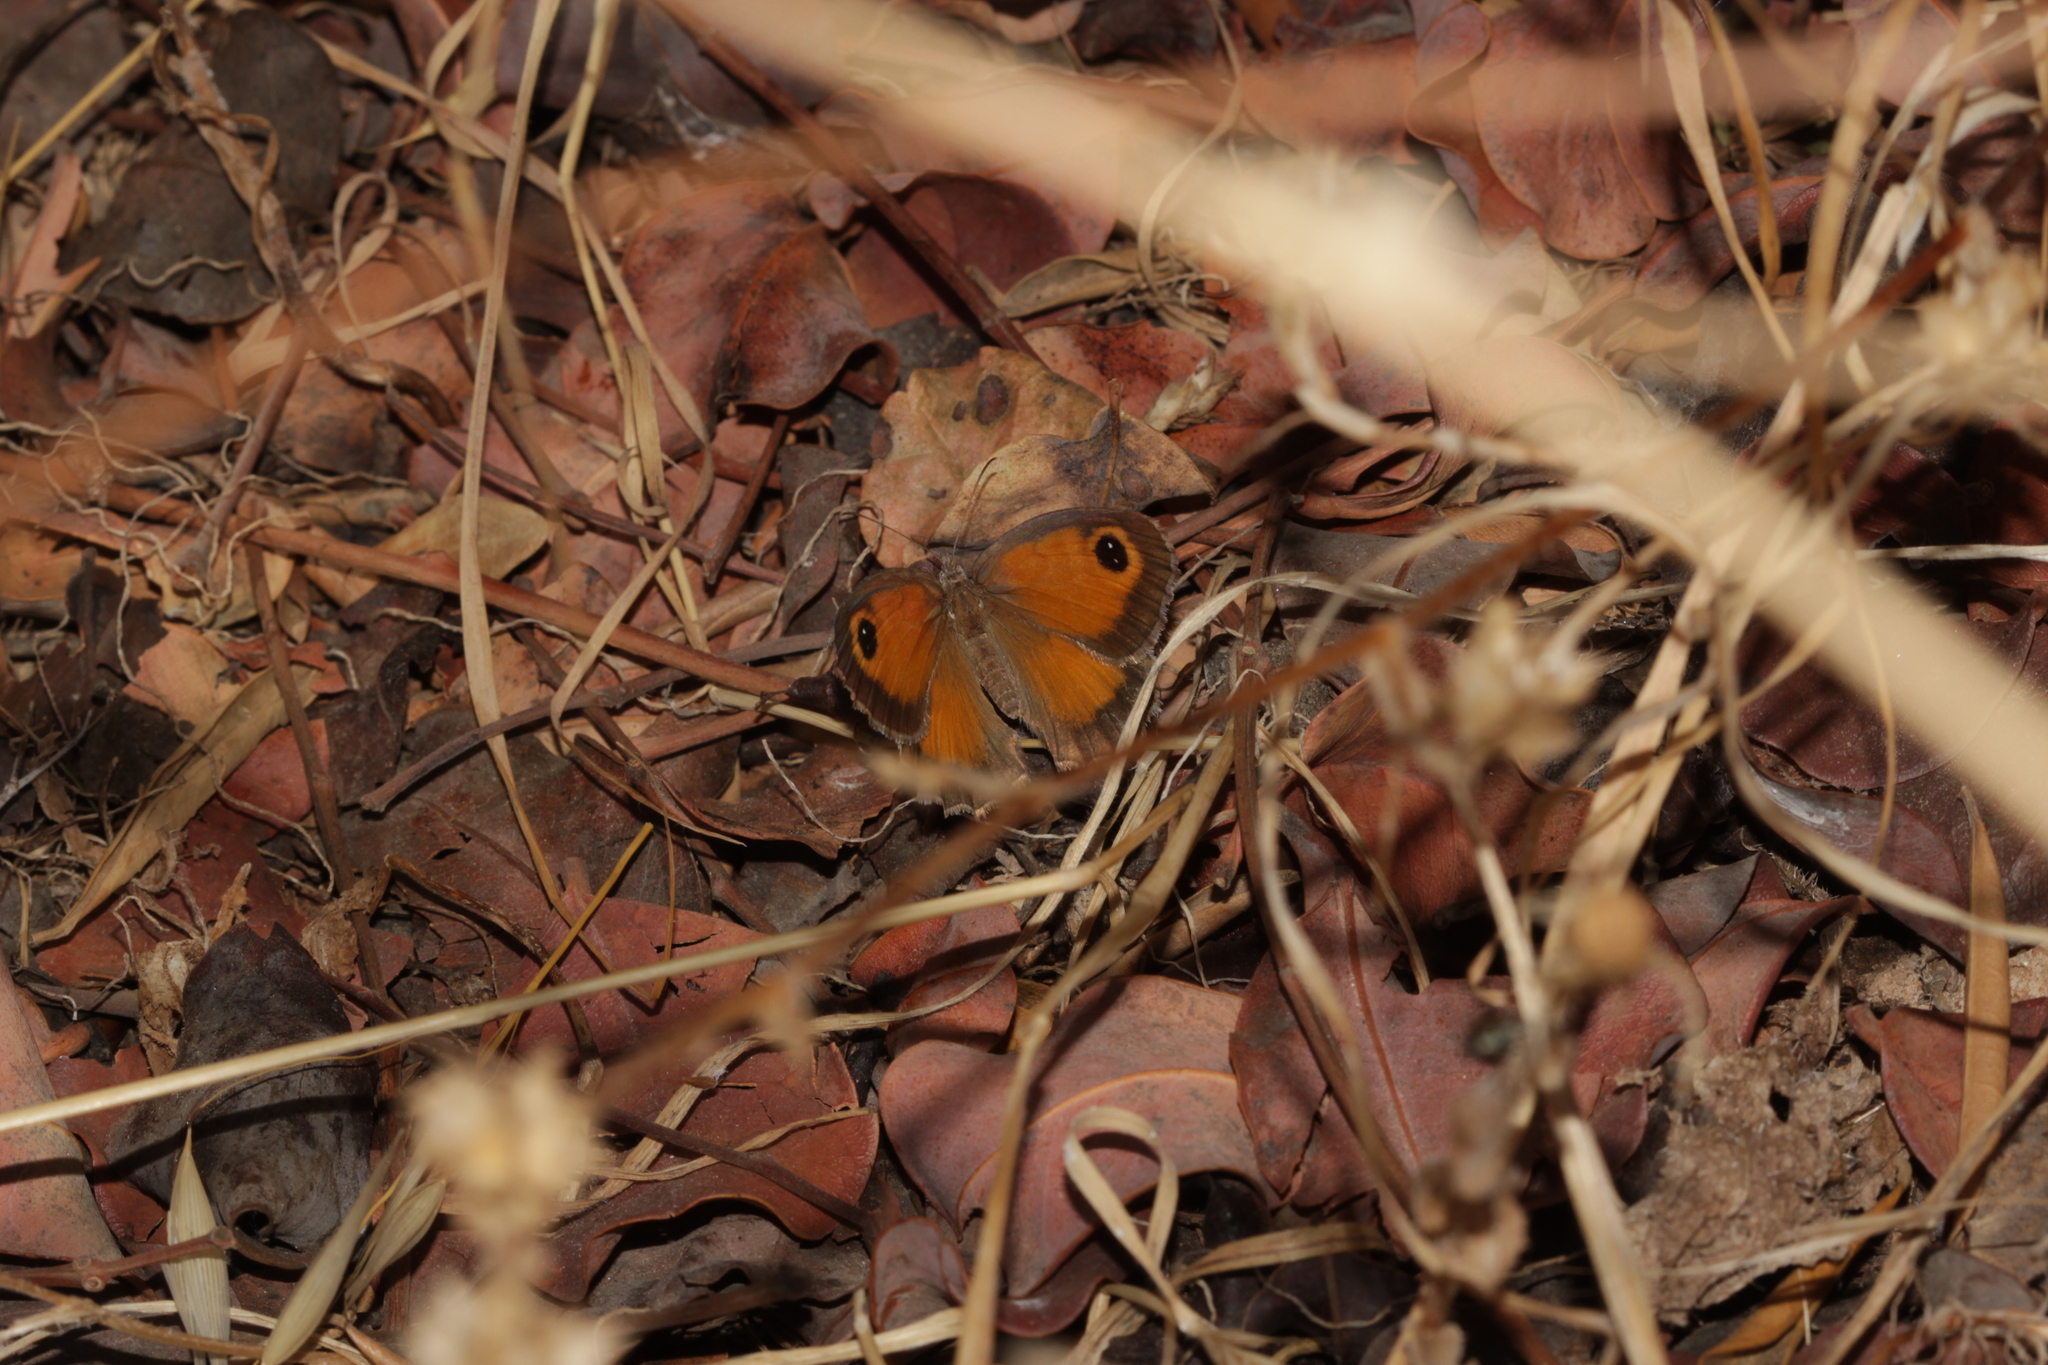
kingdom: Animalia
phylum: Arthropoda
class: Insecta
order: Lepidoptera
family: Nymphalidae
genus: Pyronia
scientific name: Pyronia cecilia
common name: Southern gatekeeper
